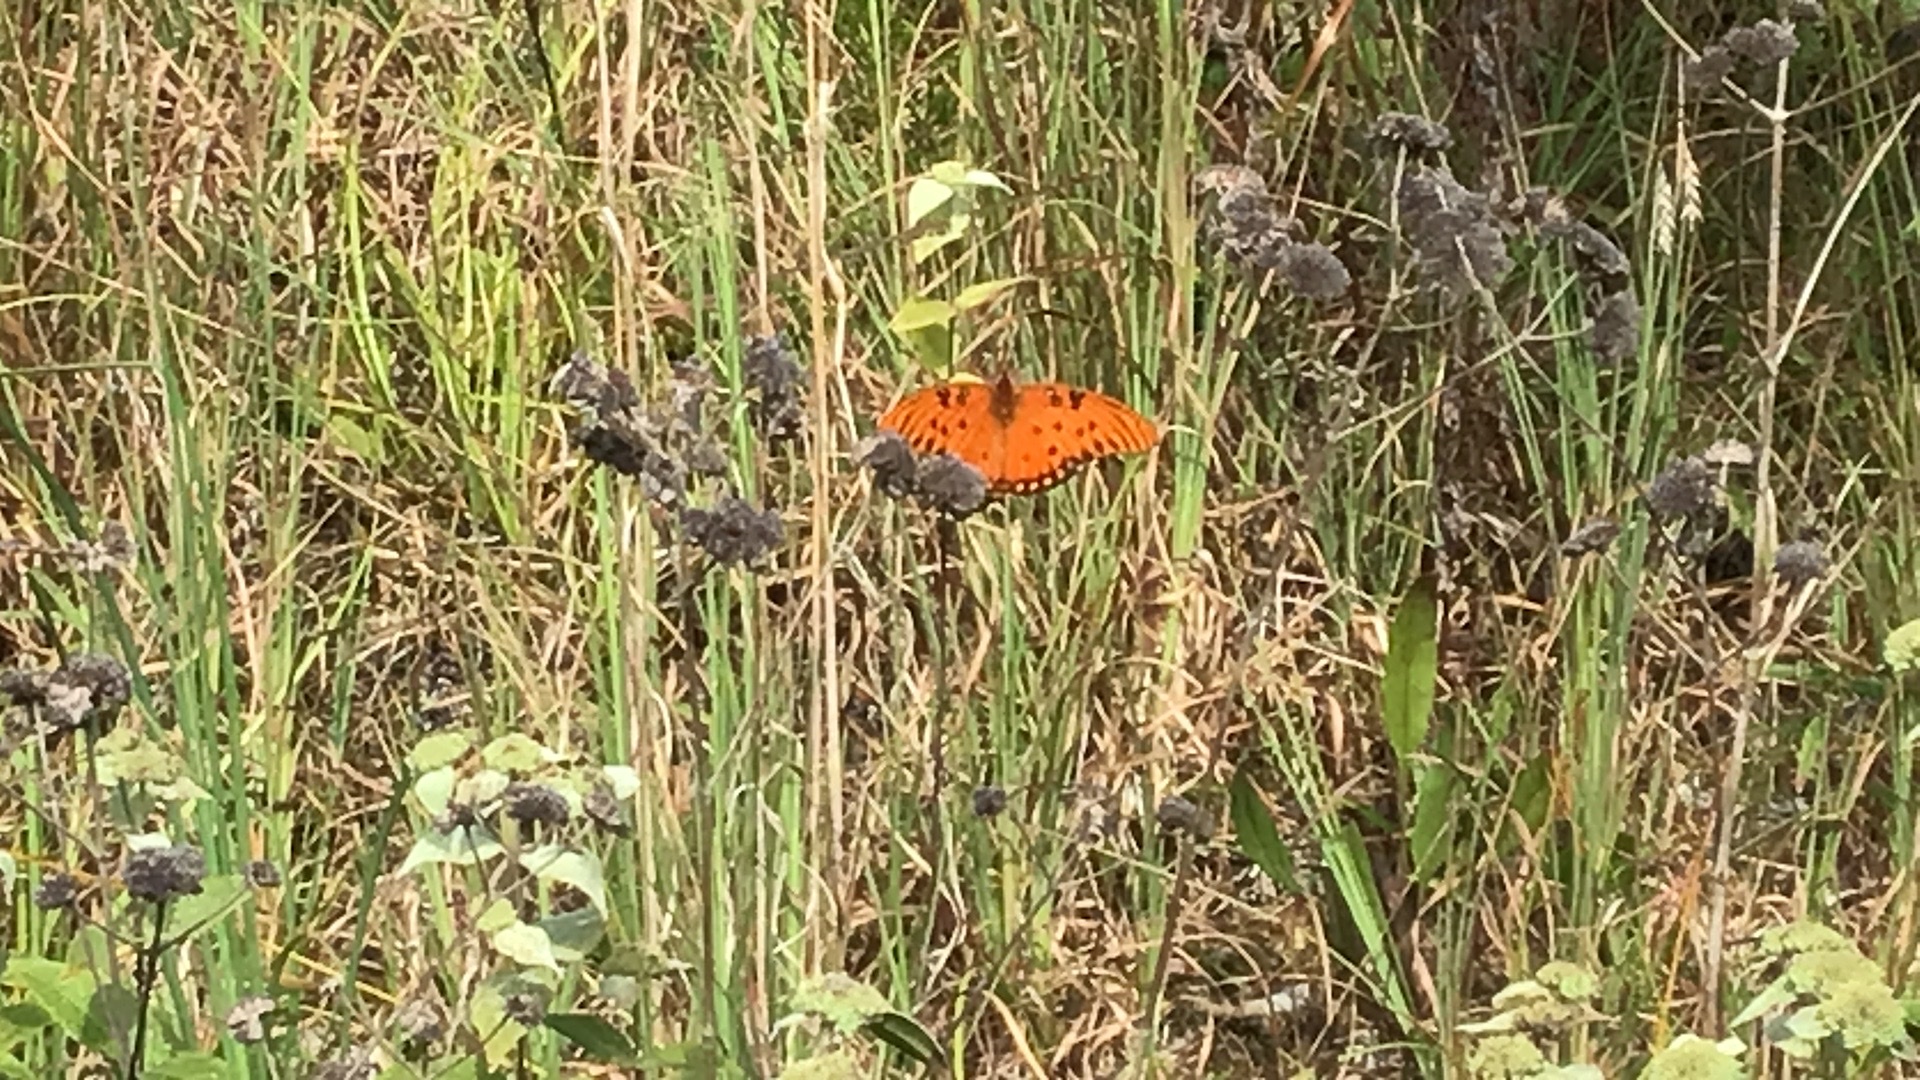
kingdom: Animalia
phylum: Arthropoda
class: Insecta
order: Lepidoptera
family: Nymphalidae
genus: Dione
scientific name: Dione vanillae
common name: Gulf fritillary
